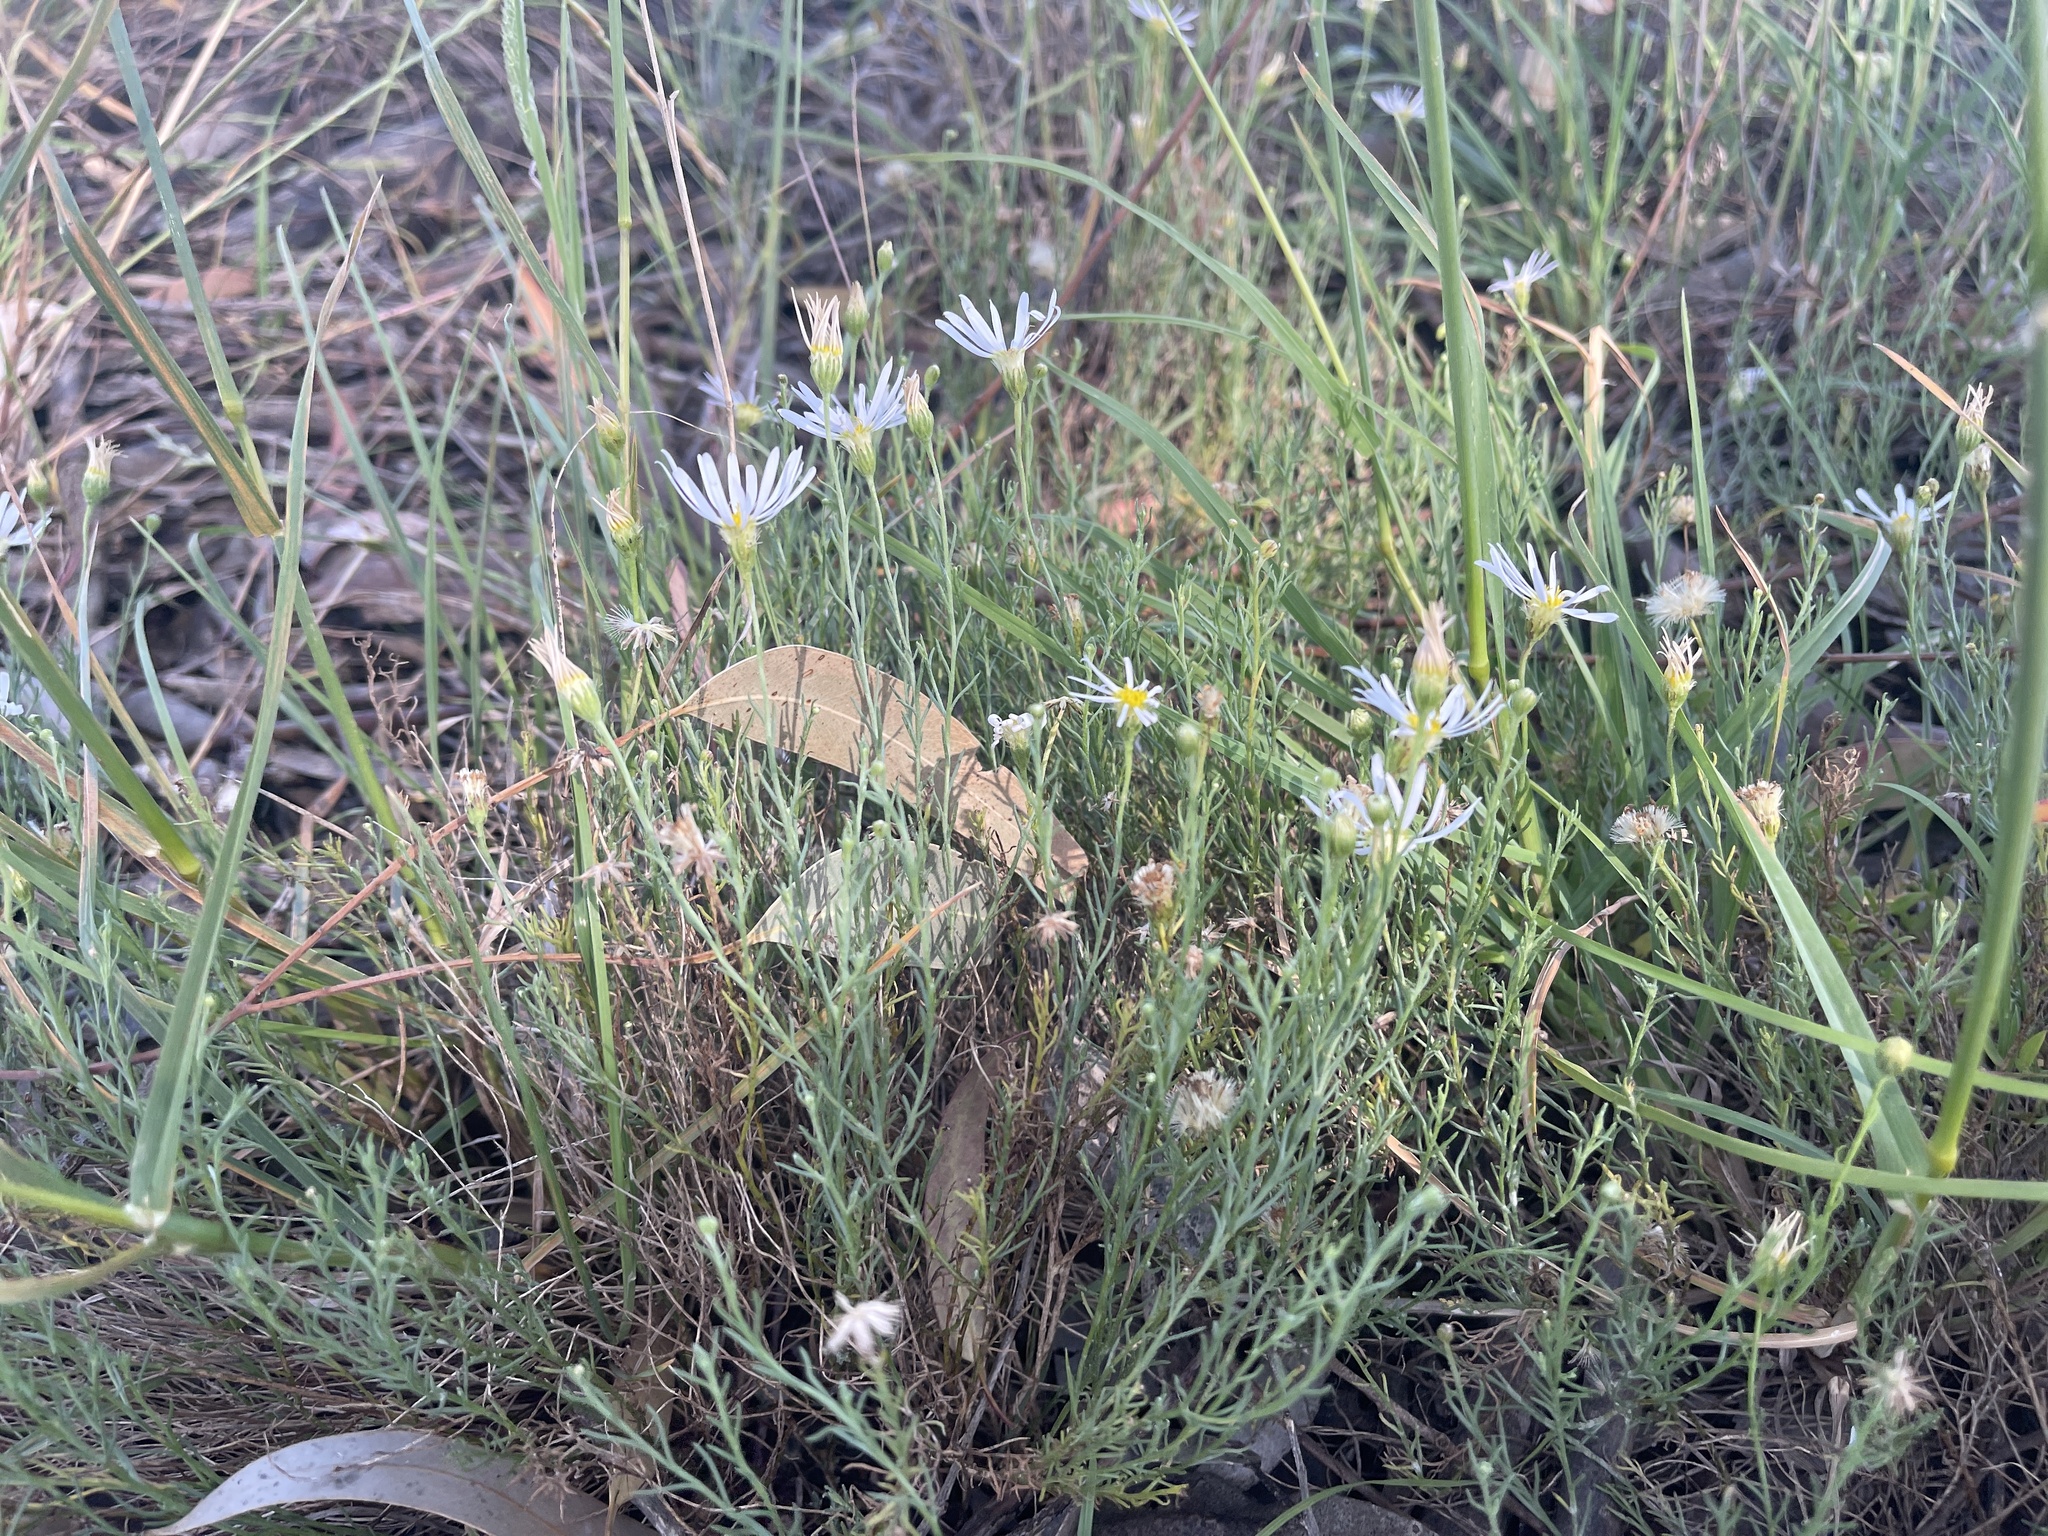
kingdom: Plantae
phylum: Tracheophyta
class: Magnoliopsida
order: Asterales
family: Asteraceae
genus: Minuria
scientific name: Minuria leptophylla
